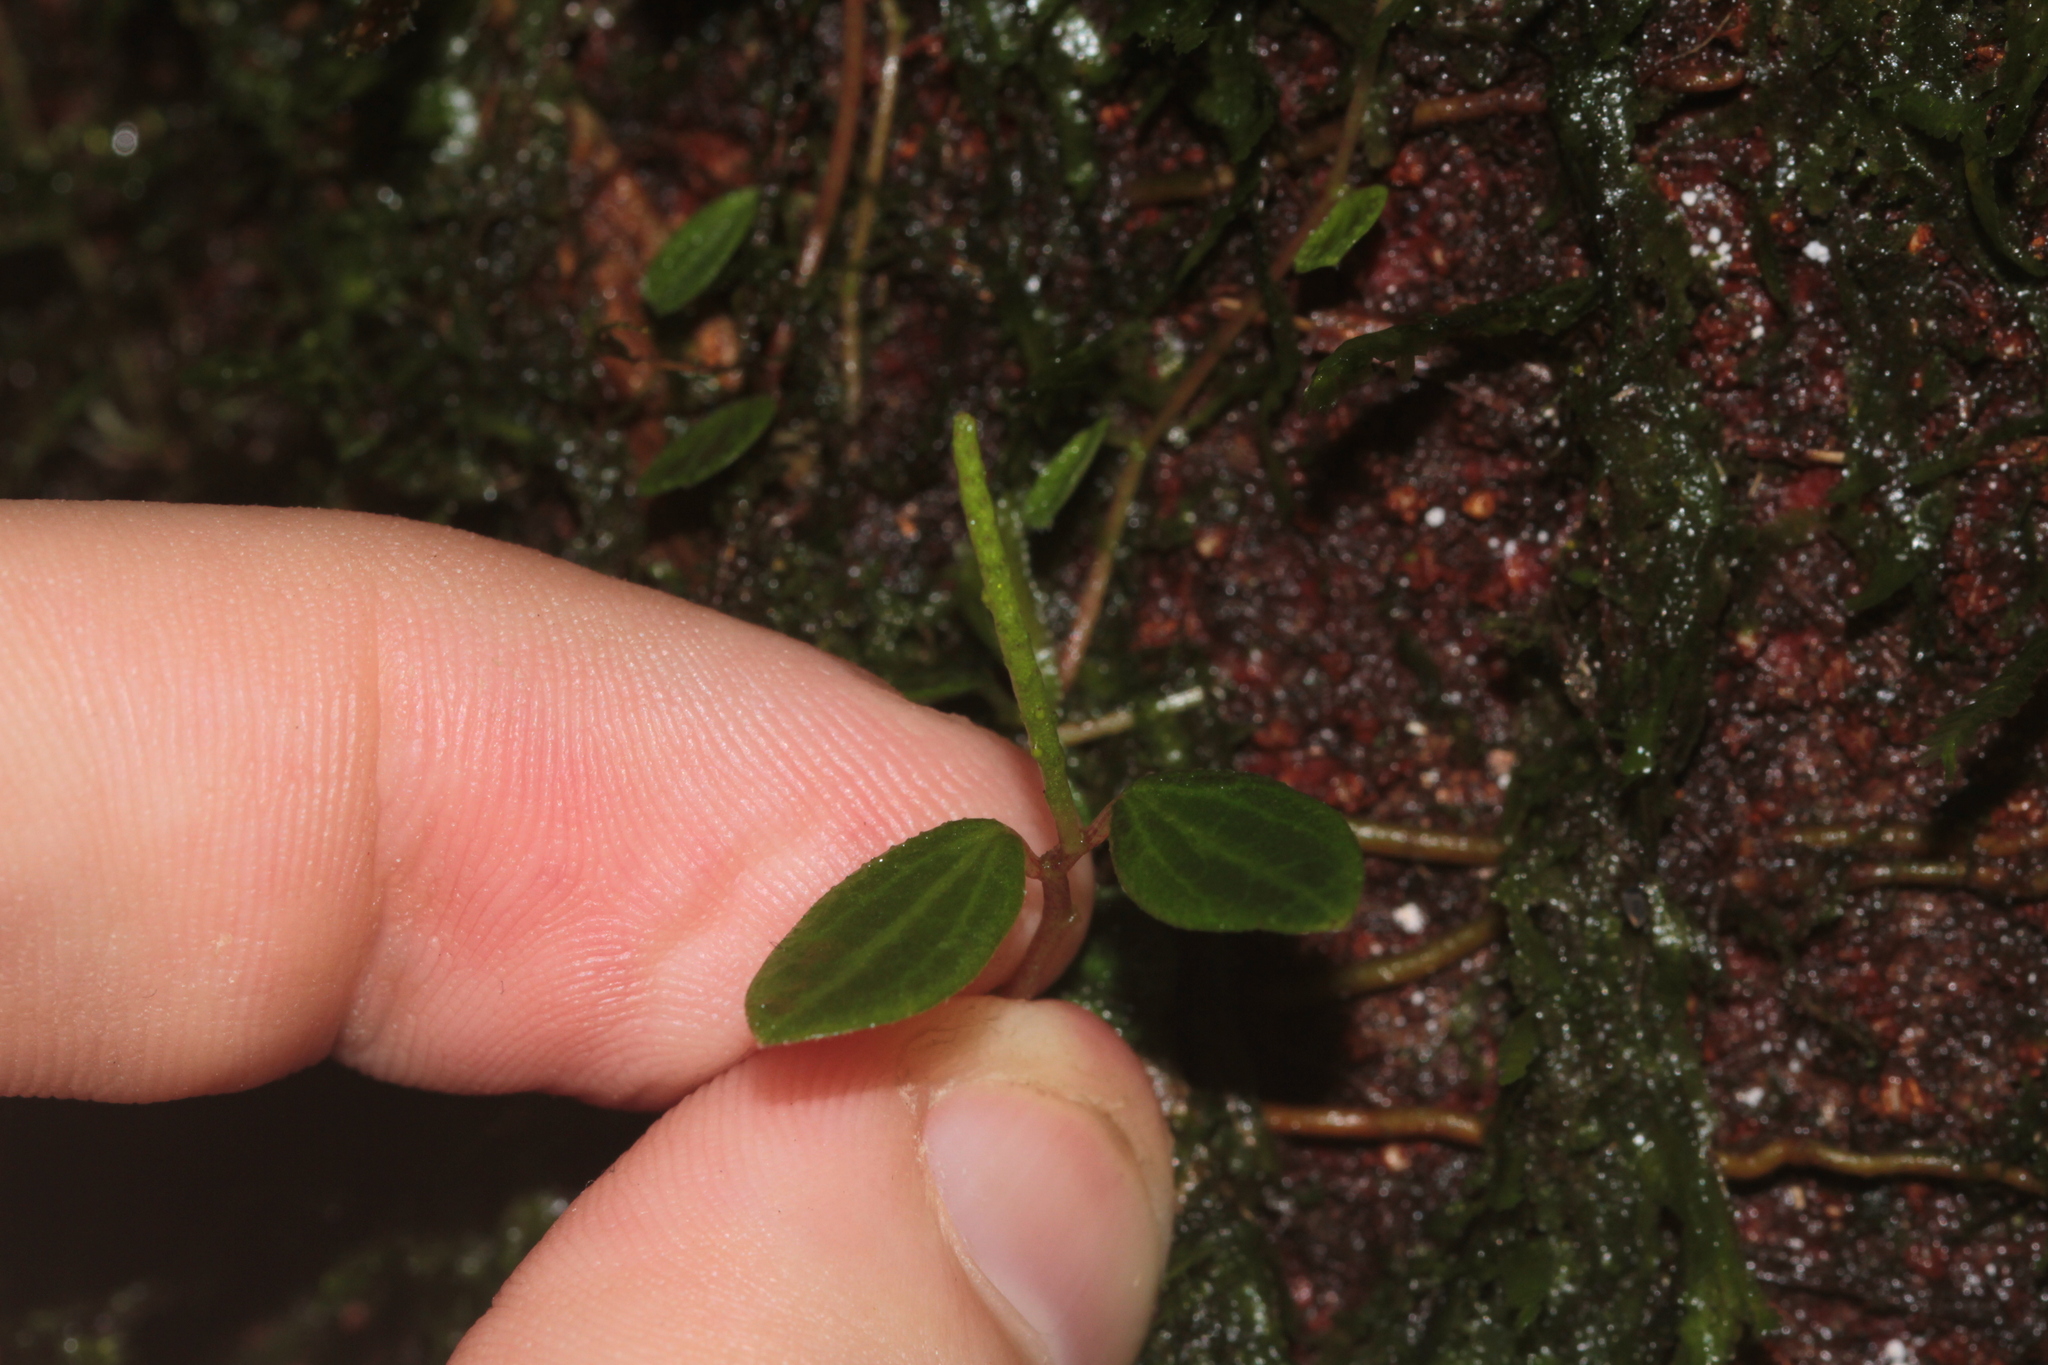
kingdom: Plantae
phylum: Tracheophyta
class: Magnoliopsida
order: Piperales
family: Piperaceae
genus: Peperomia
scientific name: Peperomia ouabianae
